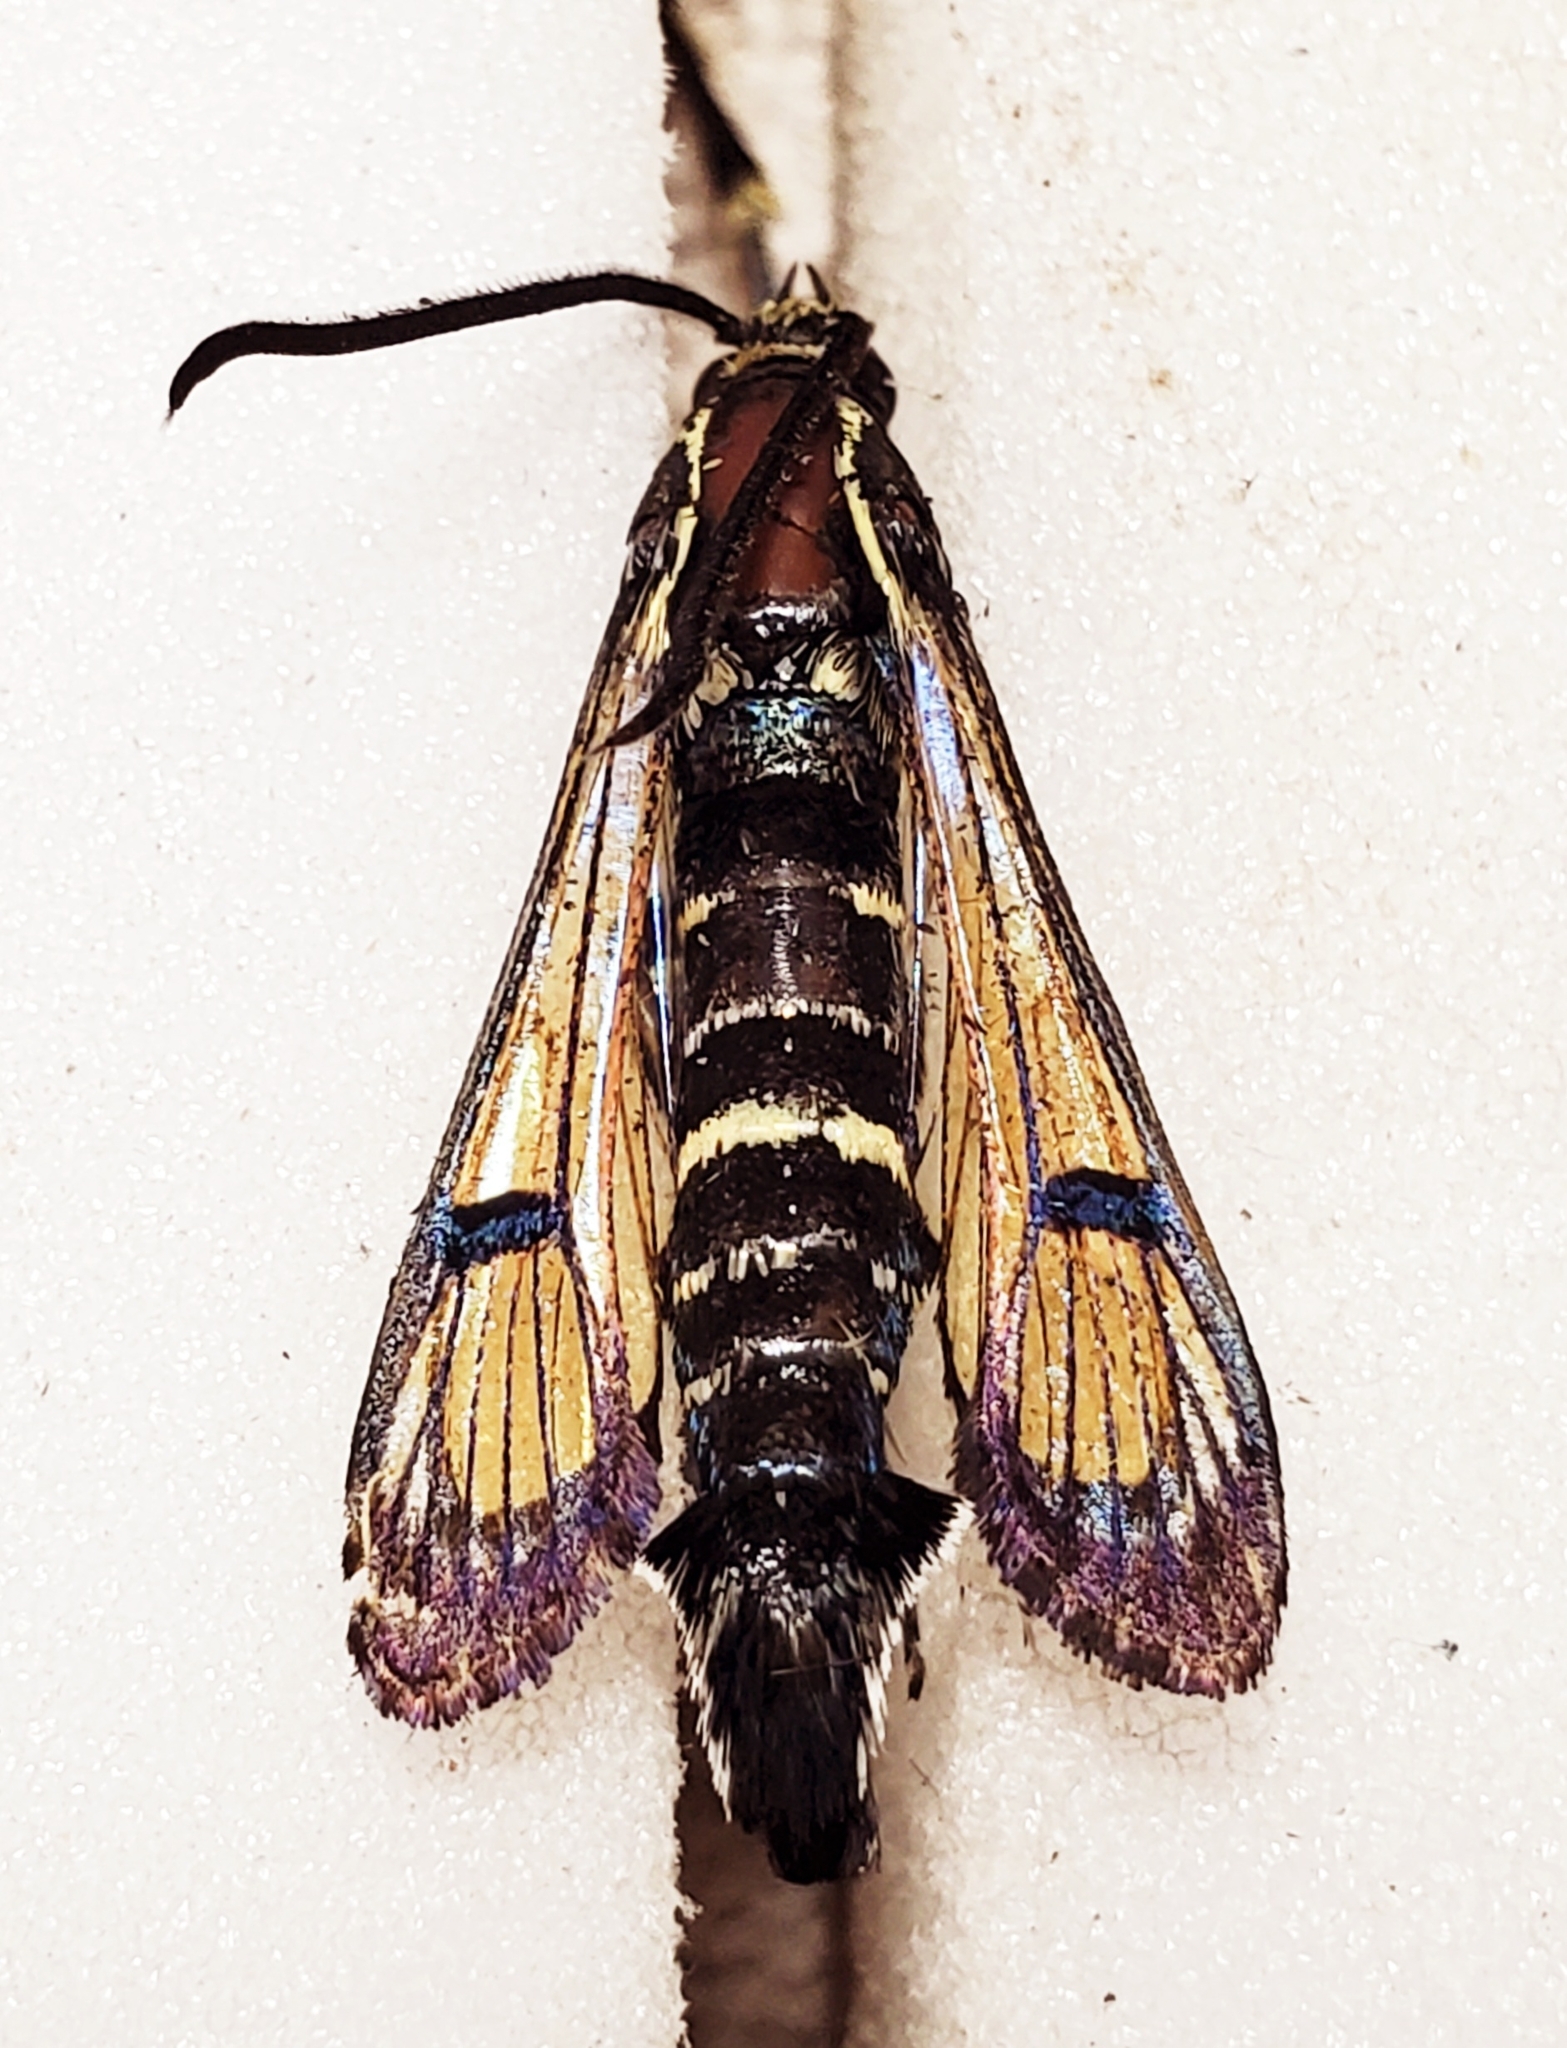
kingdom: Animalia
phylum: Arthropoda
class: Insecta
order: Lepidoptera
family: Sesiidae
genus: Synanthedon
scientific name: Synanthedon exitiosa
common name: Peachtree borer moth
